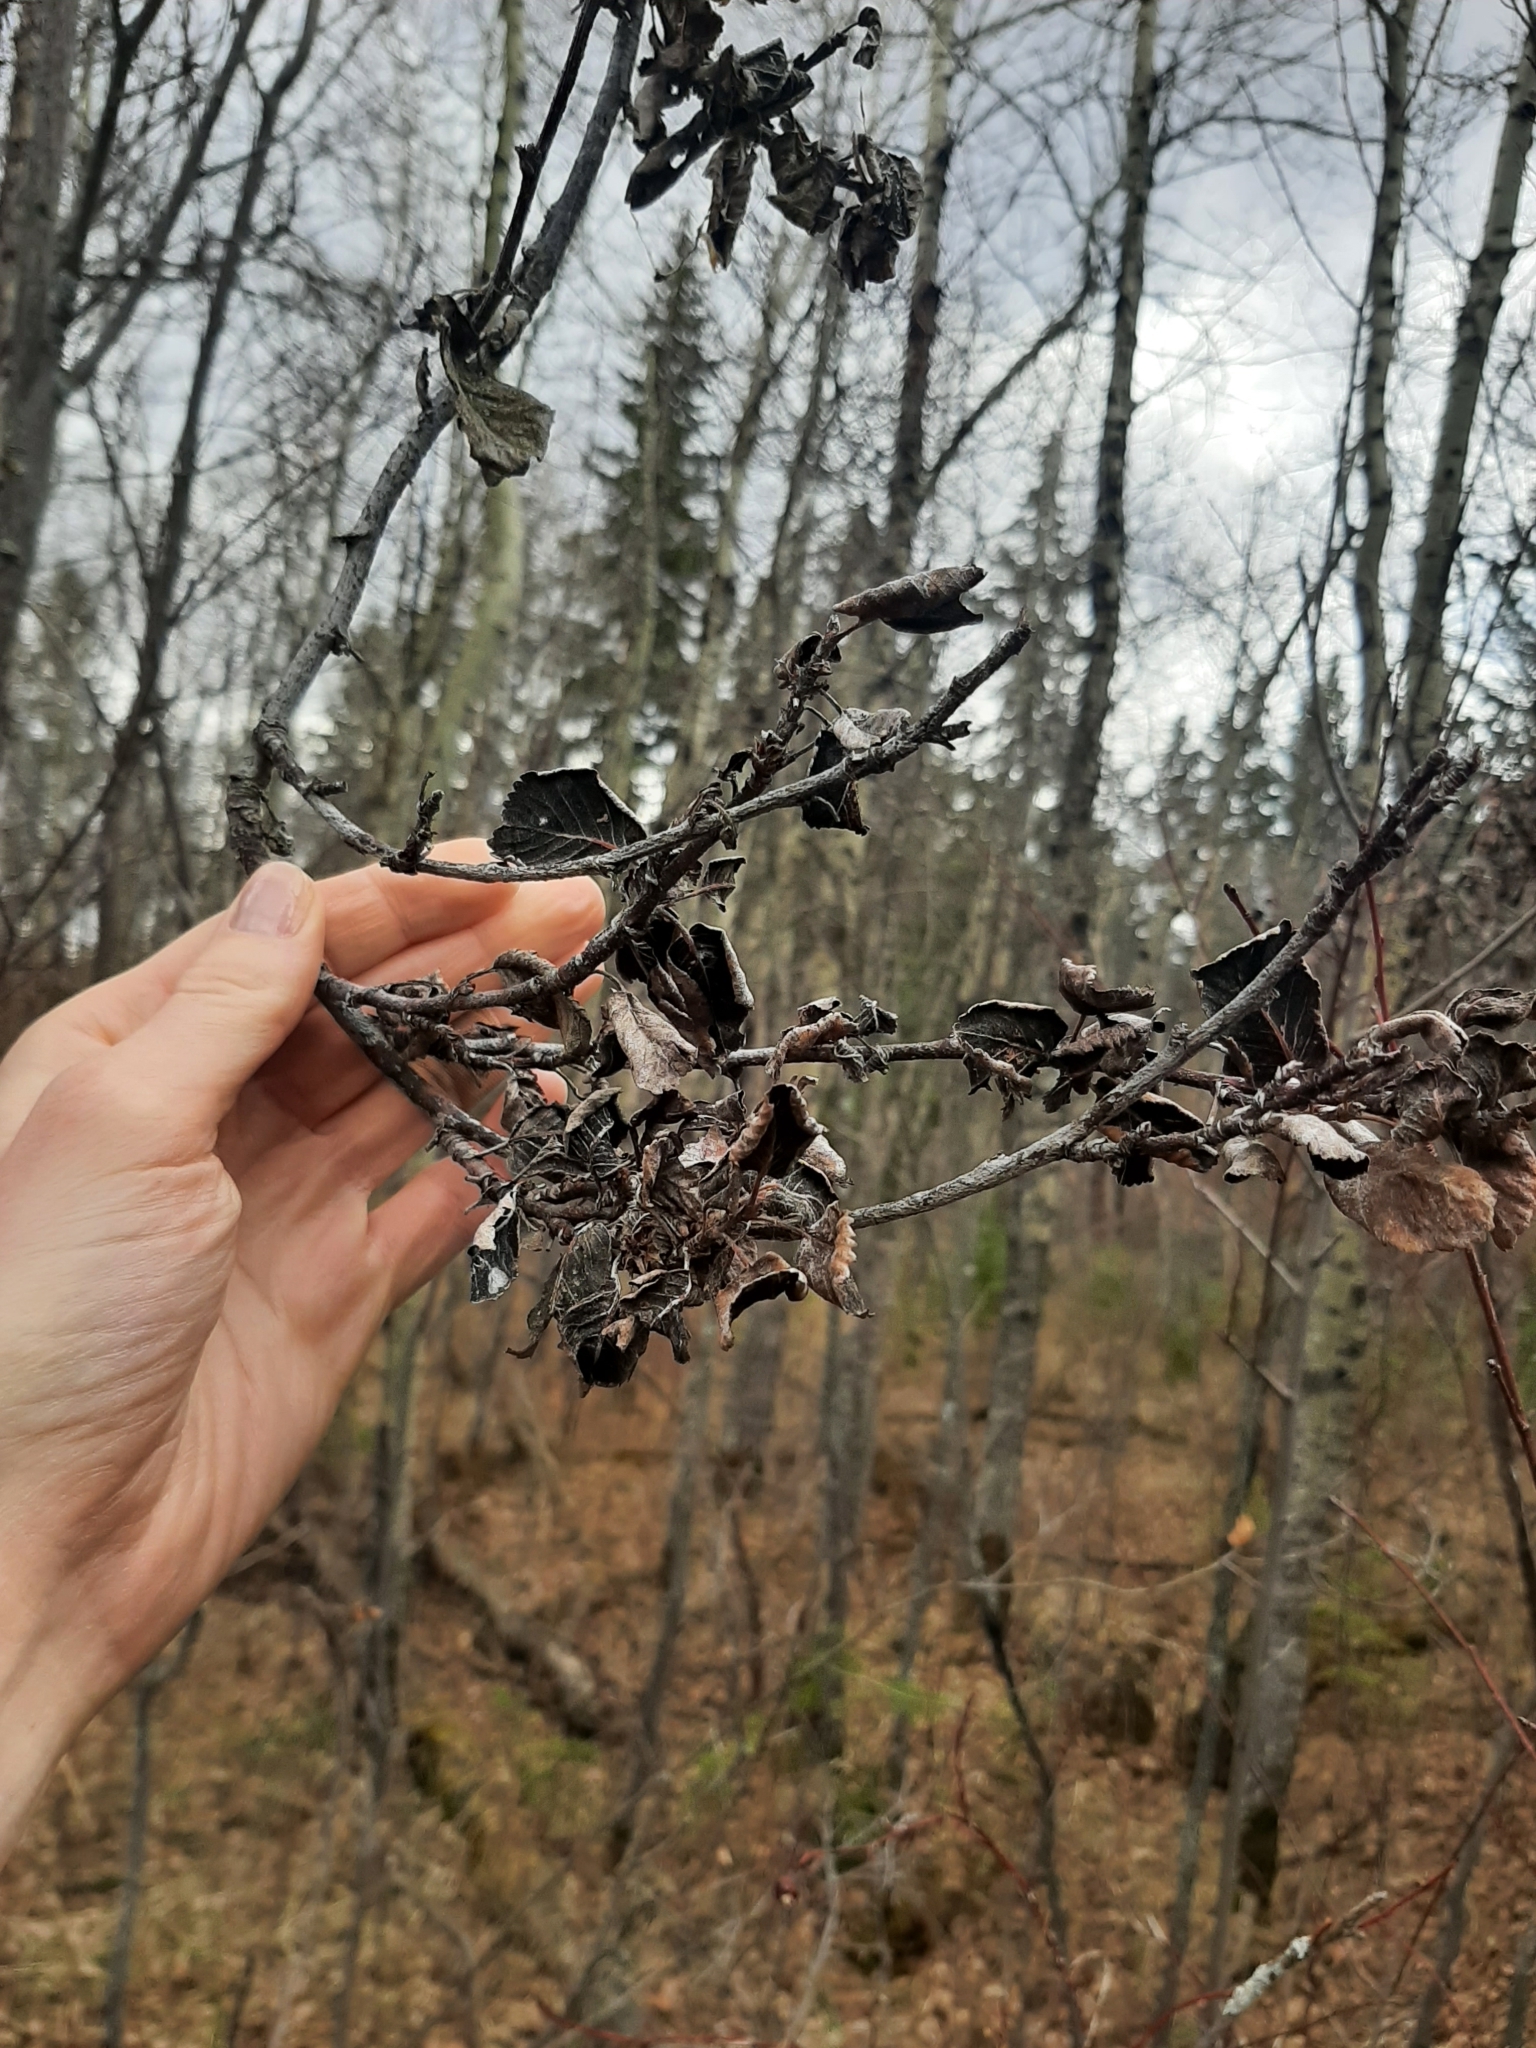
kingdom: Fungi
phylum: Ascomycota
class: Dothideomycetes
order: Venturiales
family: Venturiaceae
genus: Apiosporina
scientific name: Apiosporina collinsii
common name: Black leaf
